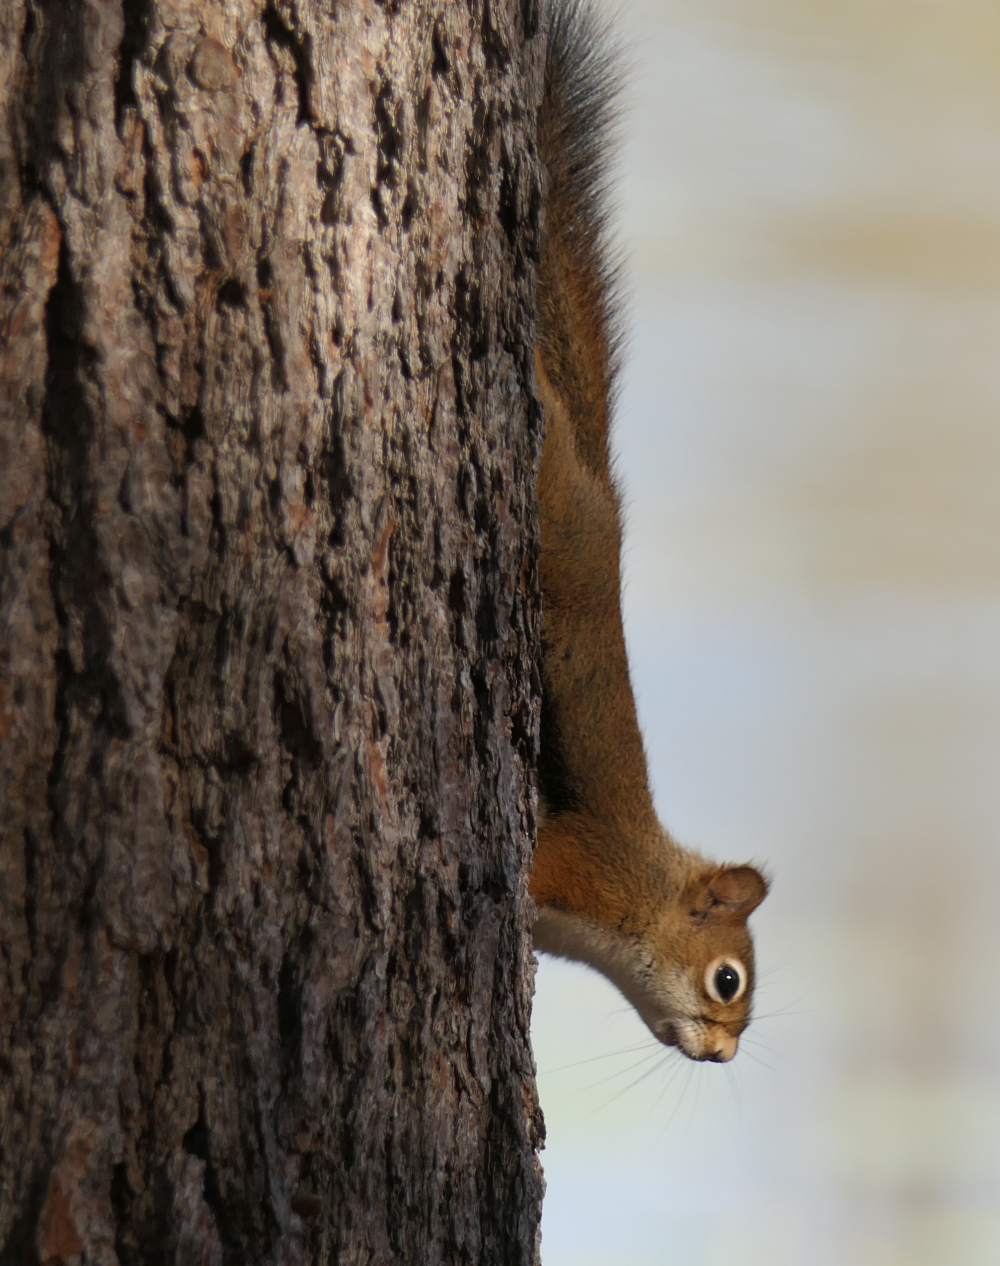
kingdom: Animalia
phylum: Chordata
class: Mammalia
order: Rodentia
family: Sciuridae
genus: Tamiasciurus
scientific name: Tamiasciurus hudsonicus
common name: Red squirrel
